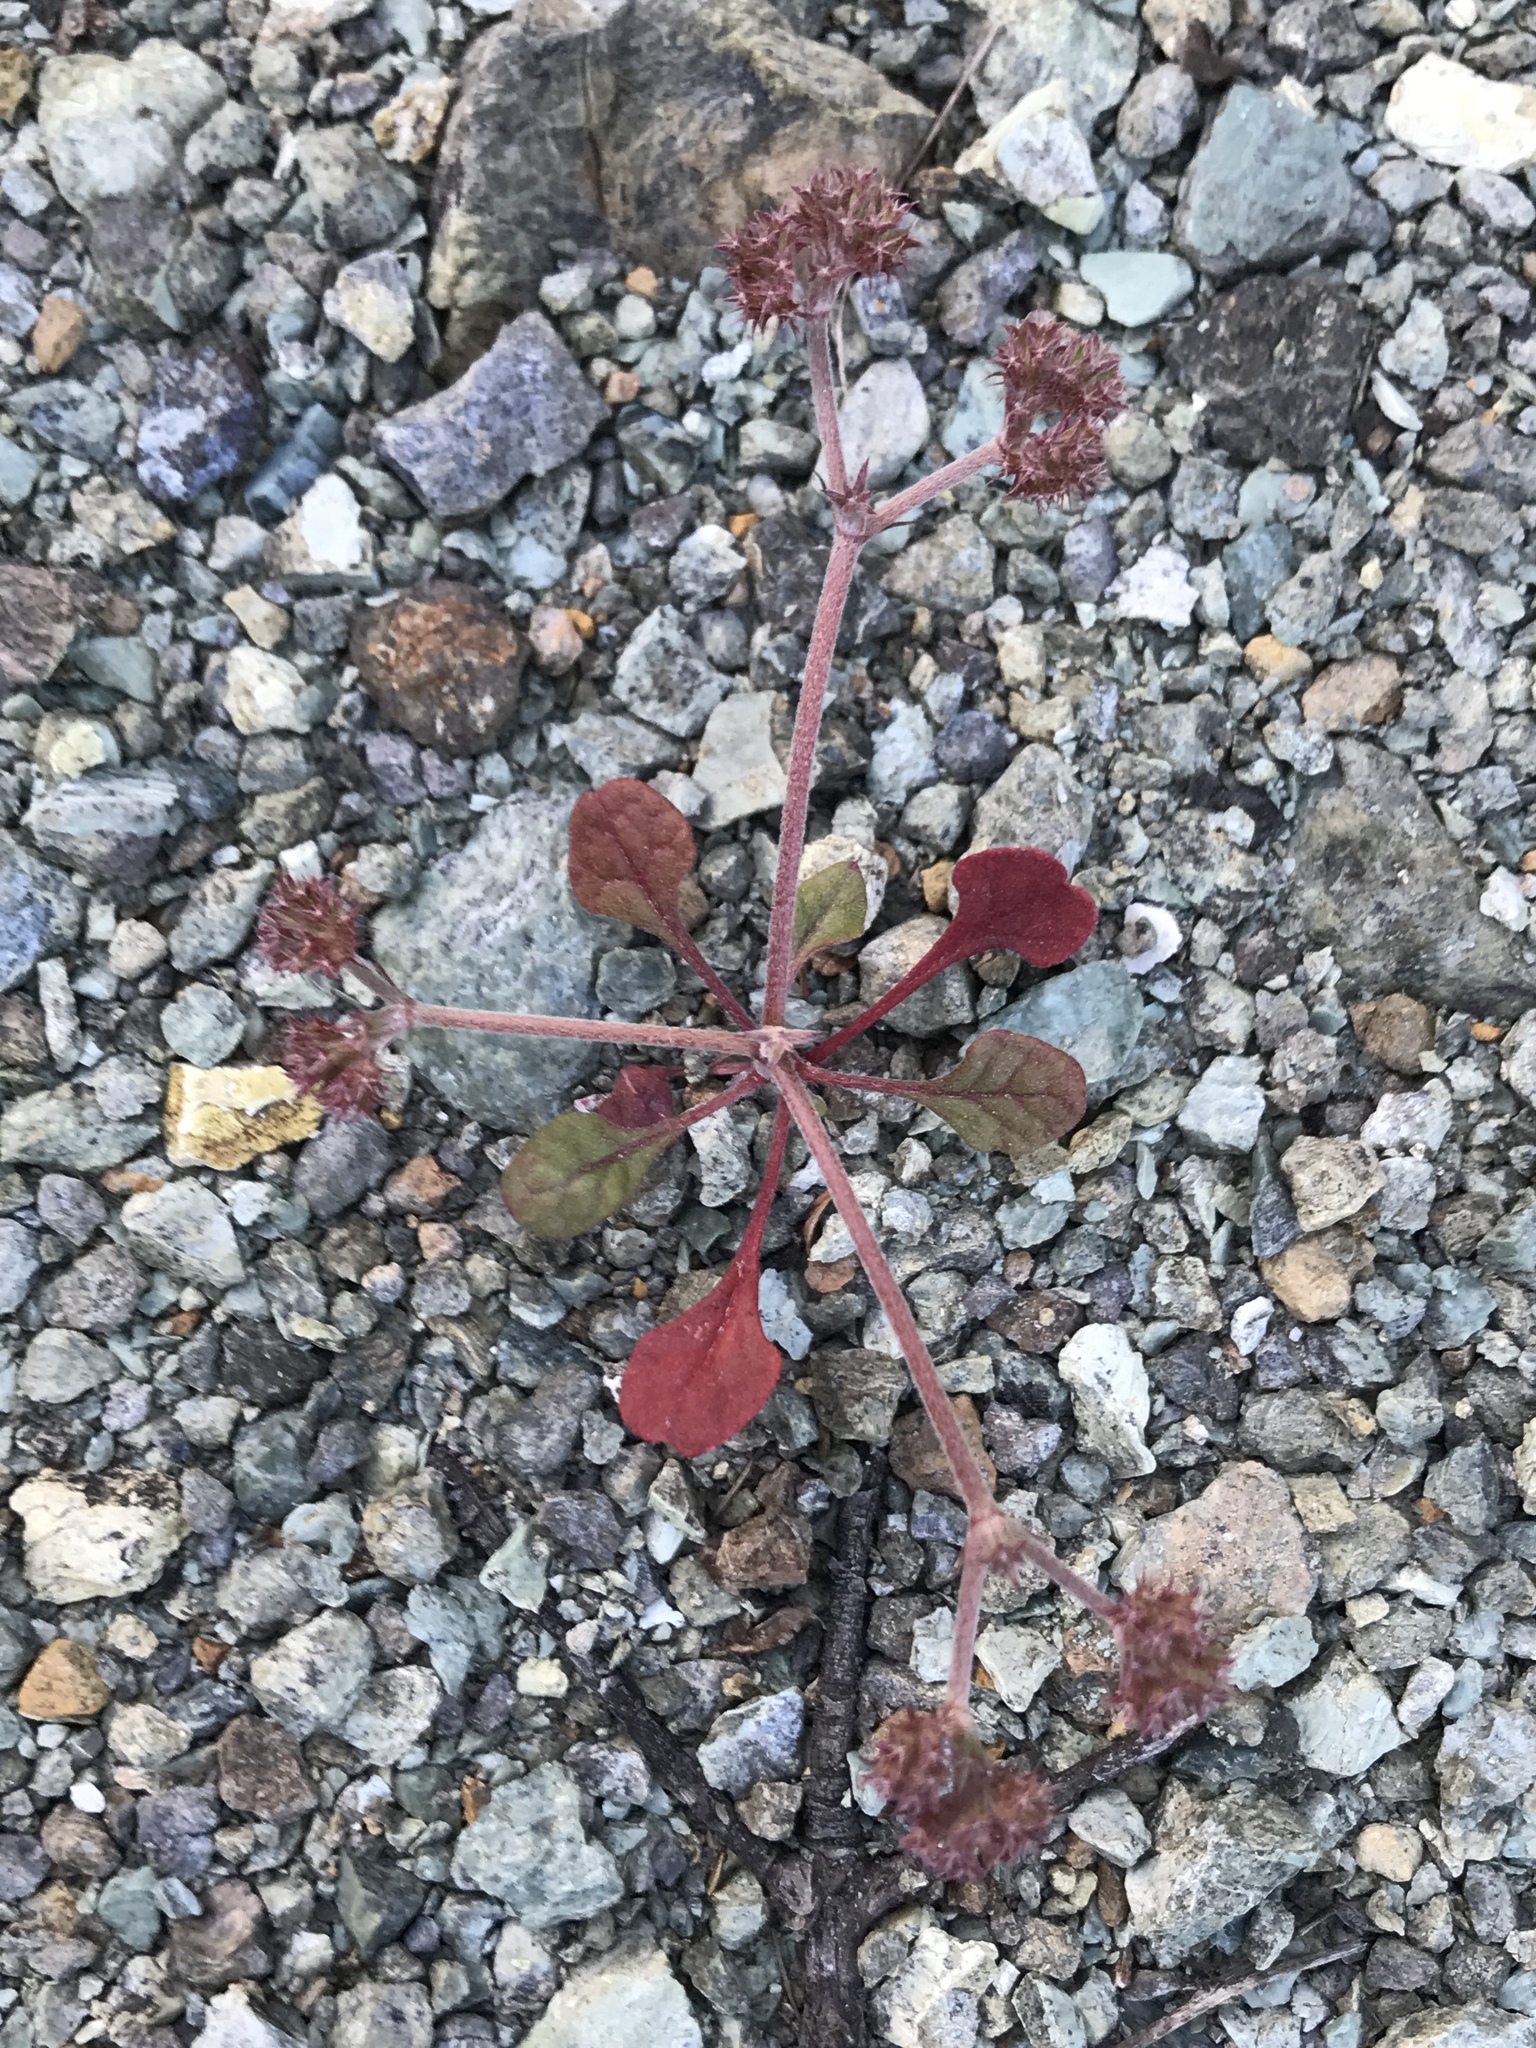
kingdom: Plantae
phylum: Tracheophyta
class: Magnoliopsida
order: Caryophyllales
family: Polygonaceae
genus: Chorizanthe
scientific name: Chorizanthe breweri
